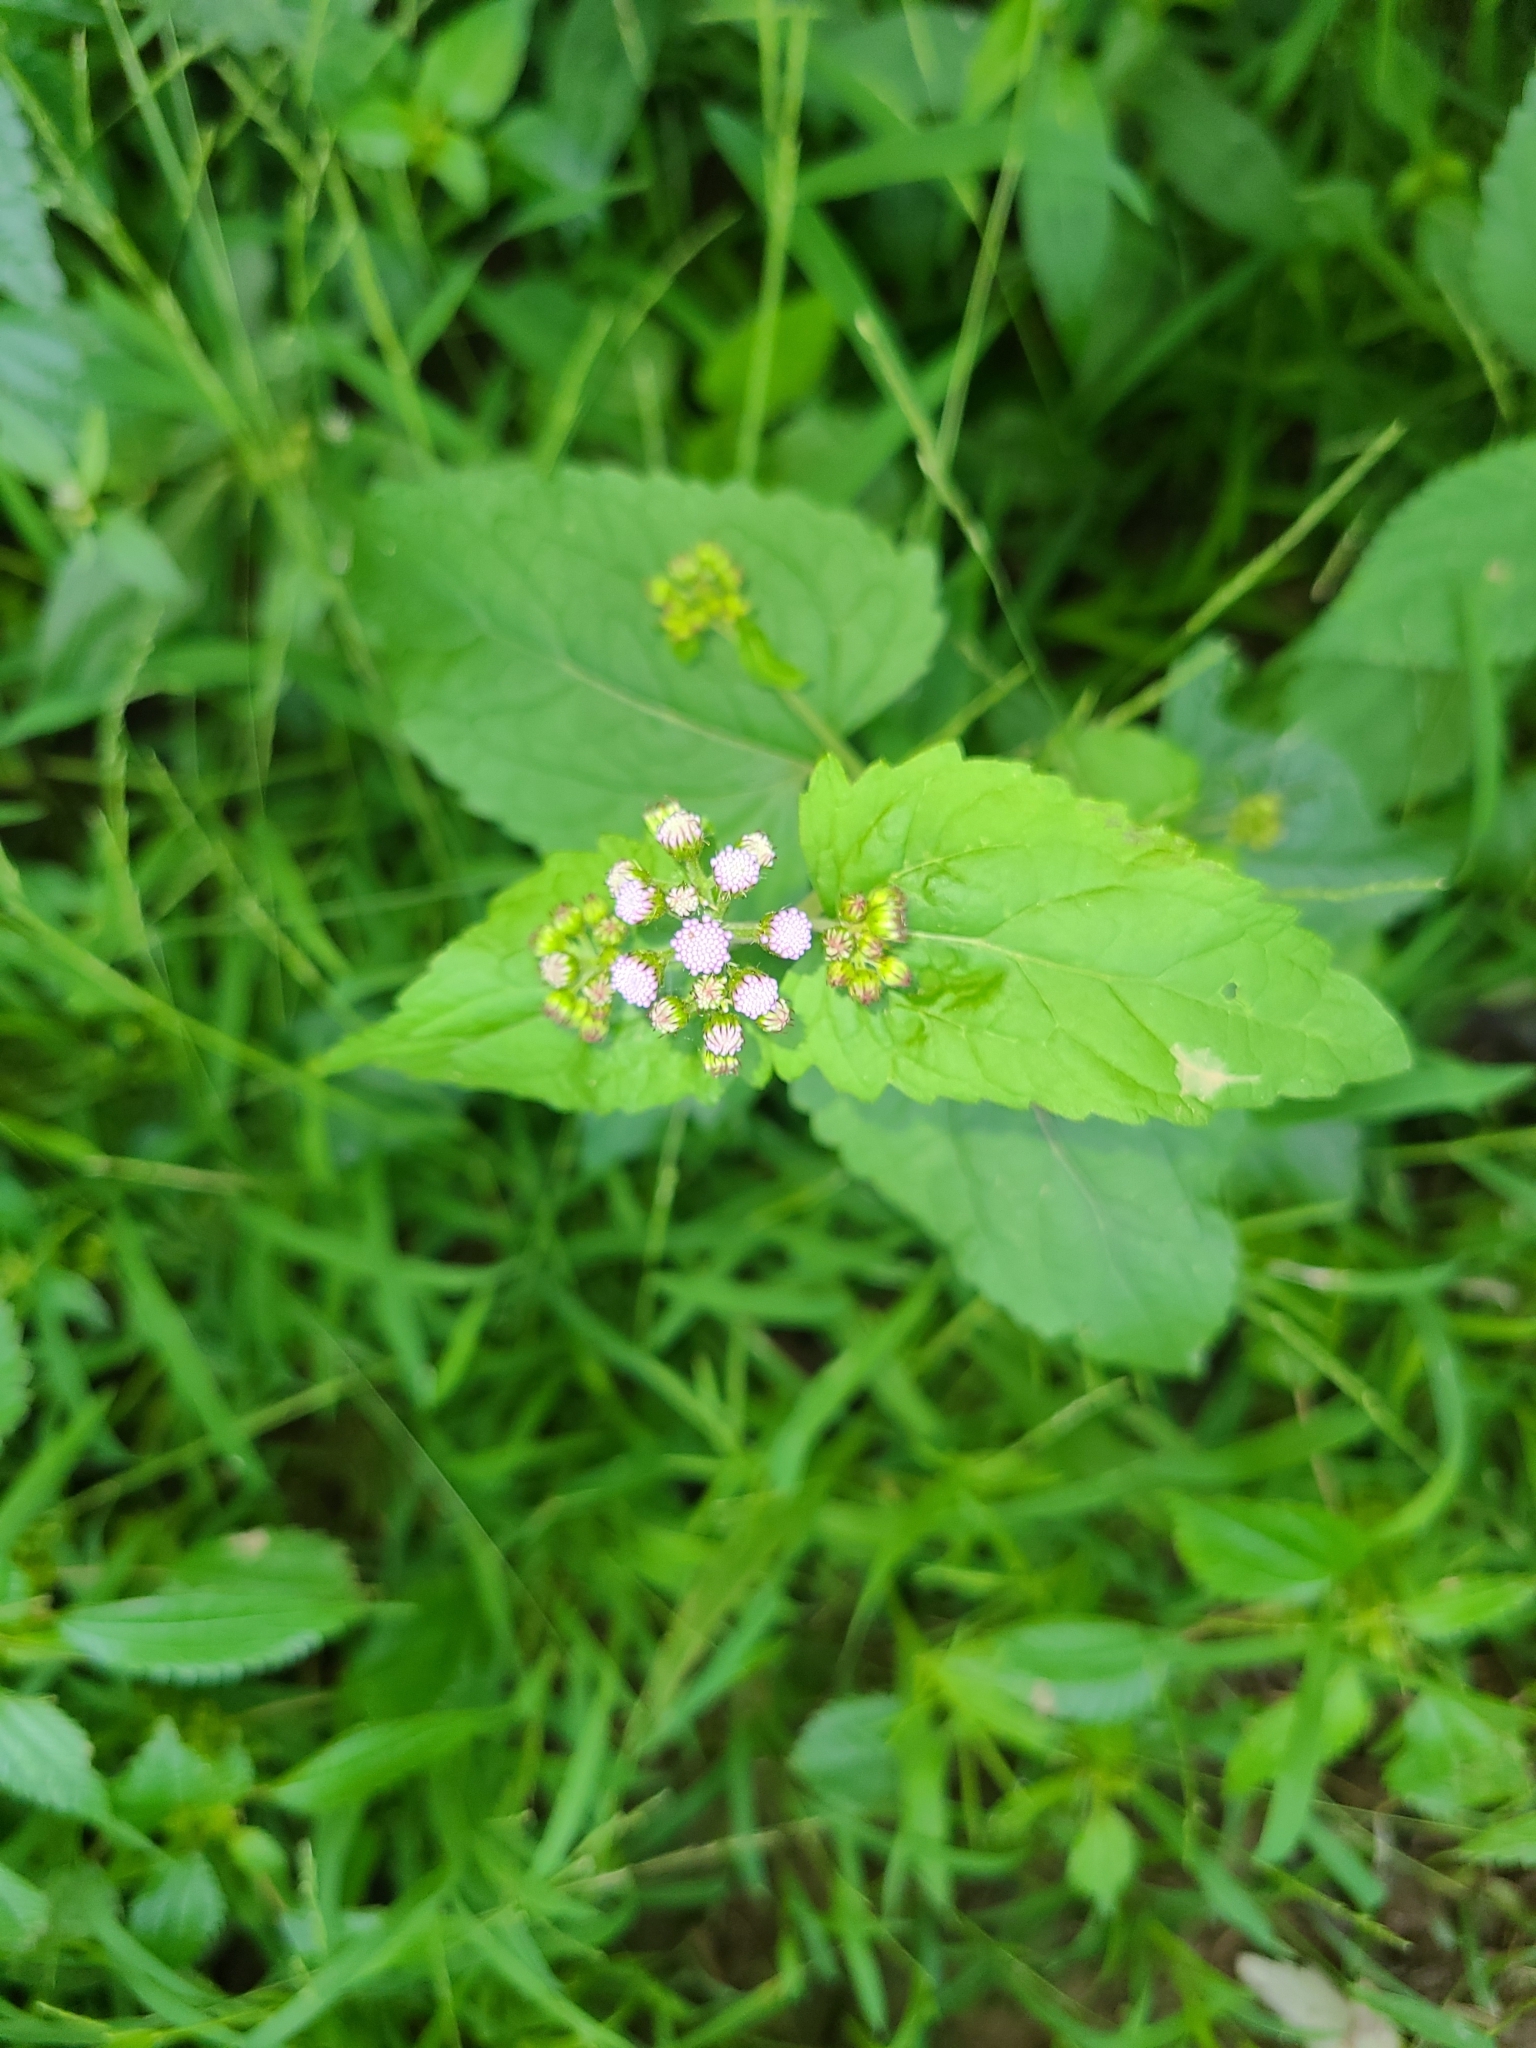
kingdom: Plantae
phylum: Tracheophyta
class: Magnoliopsida
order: Asterales
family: Asteraceae
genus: Conoclinium
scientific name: Conoclinium coelestinum
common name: Blue mistflower
